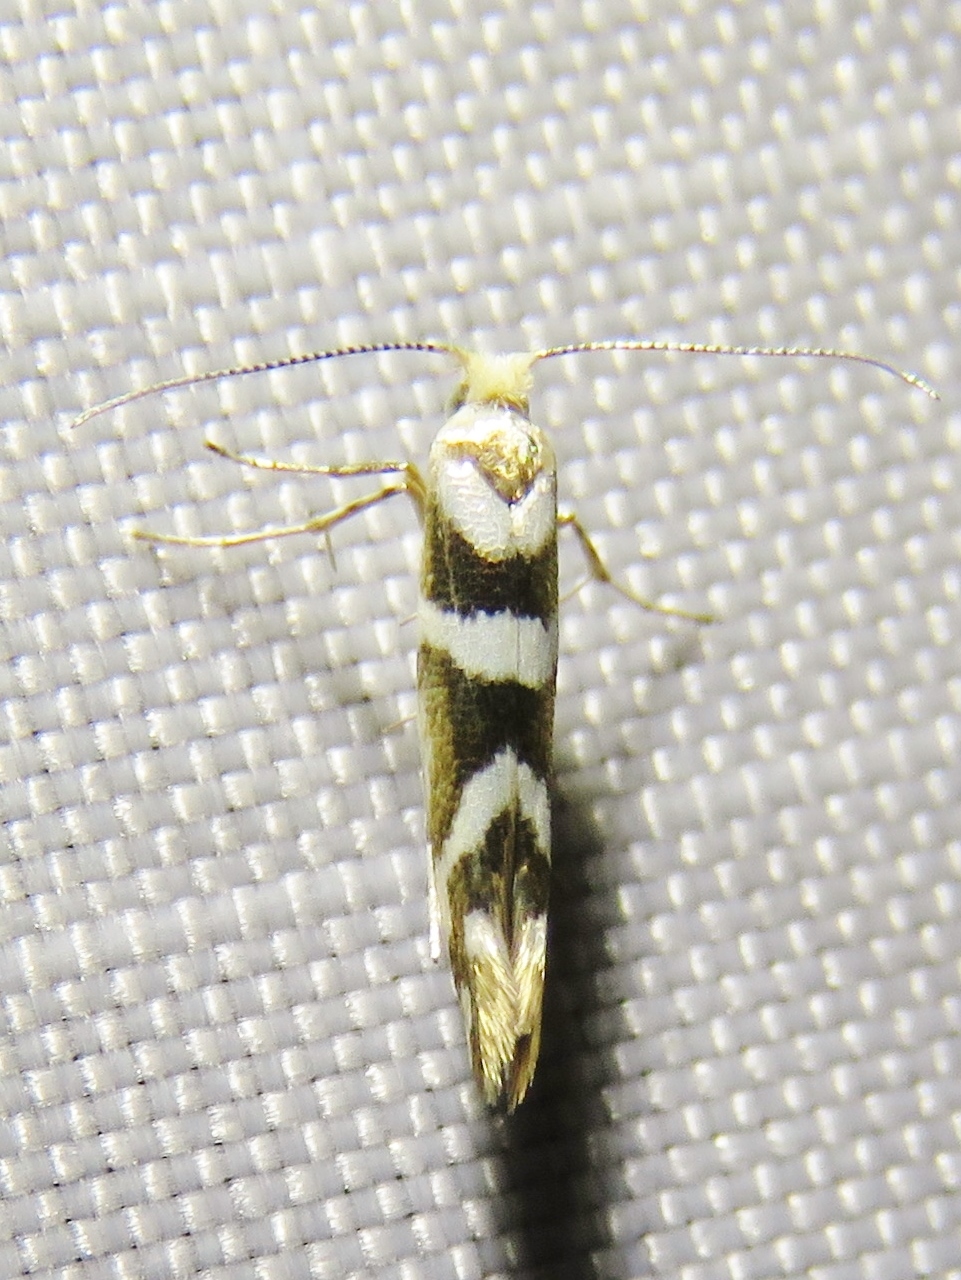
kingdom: Animalia
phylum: Arthropoda
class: Insecta
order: Lepidoptera
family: Argyresthiidae
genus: Argyresthia
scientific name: Argyresthia goedartella
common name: Golden argent
